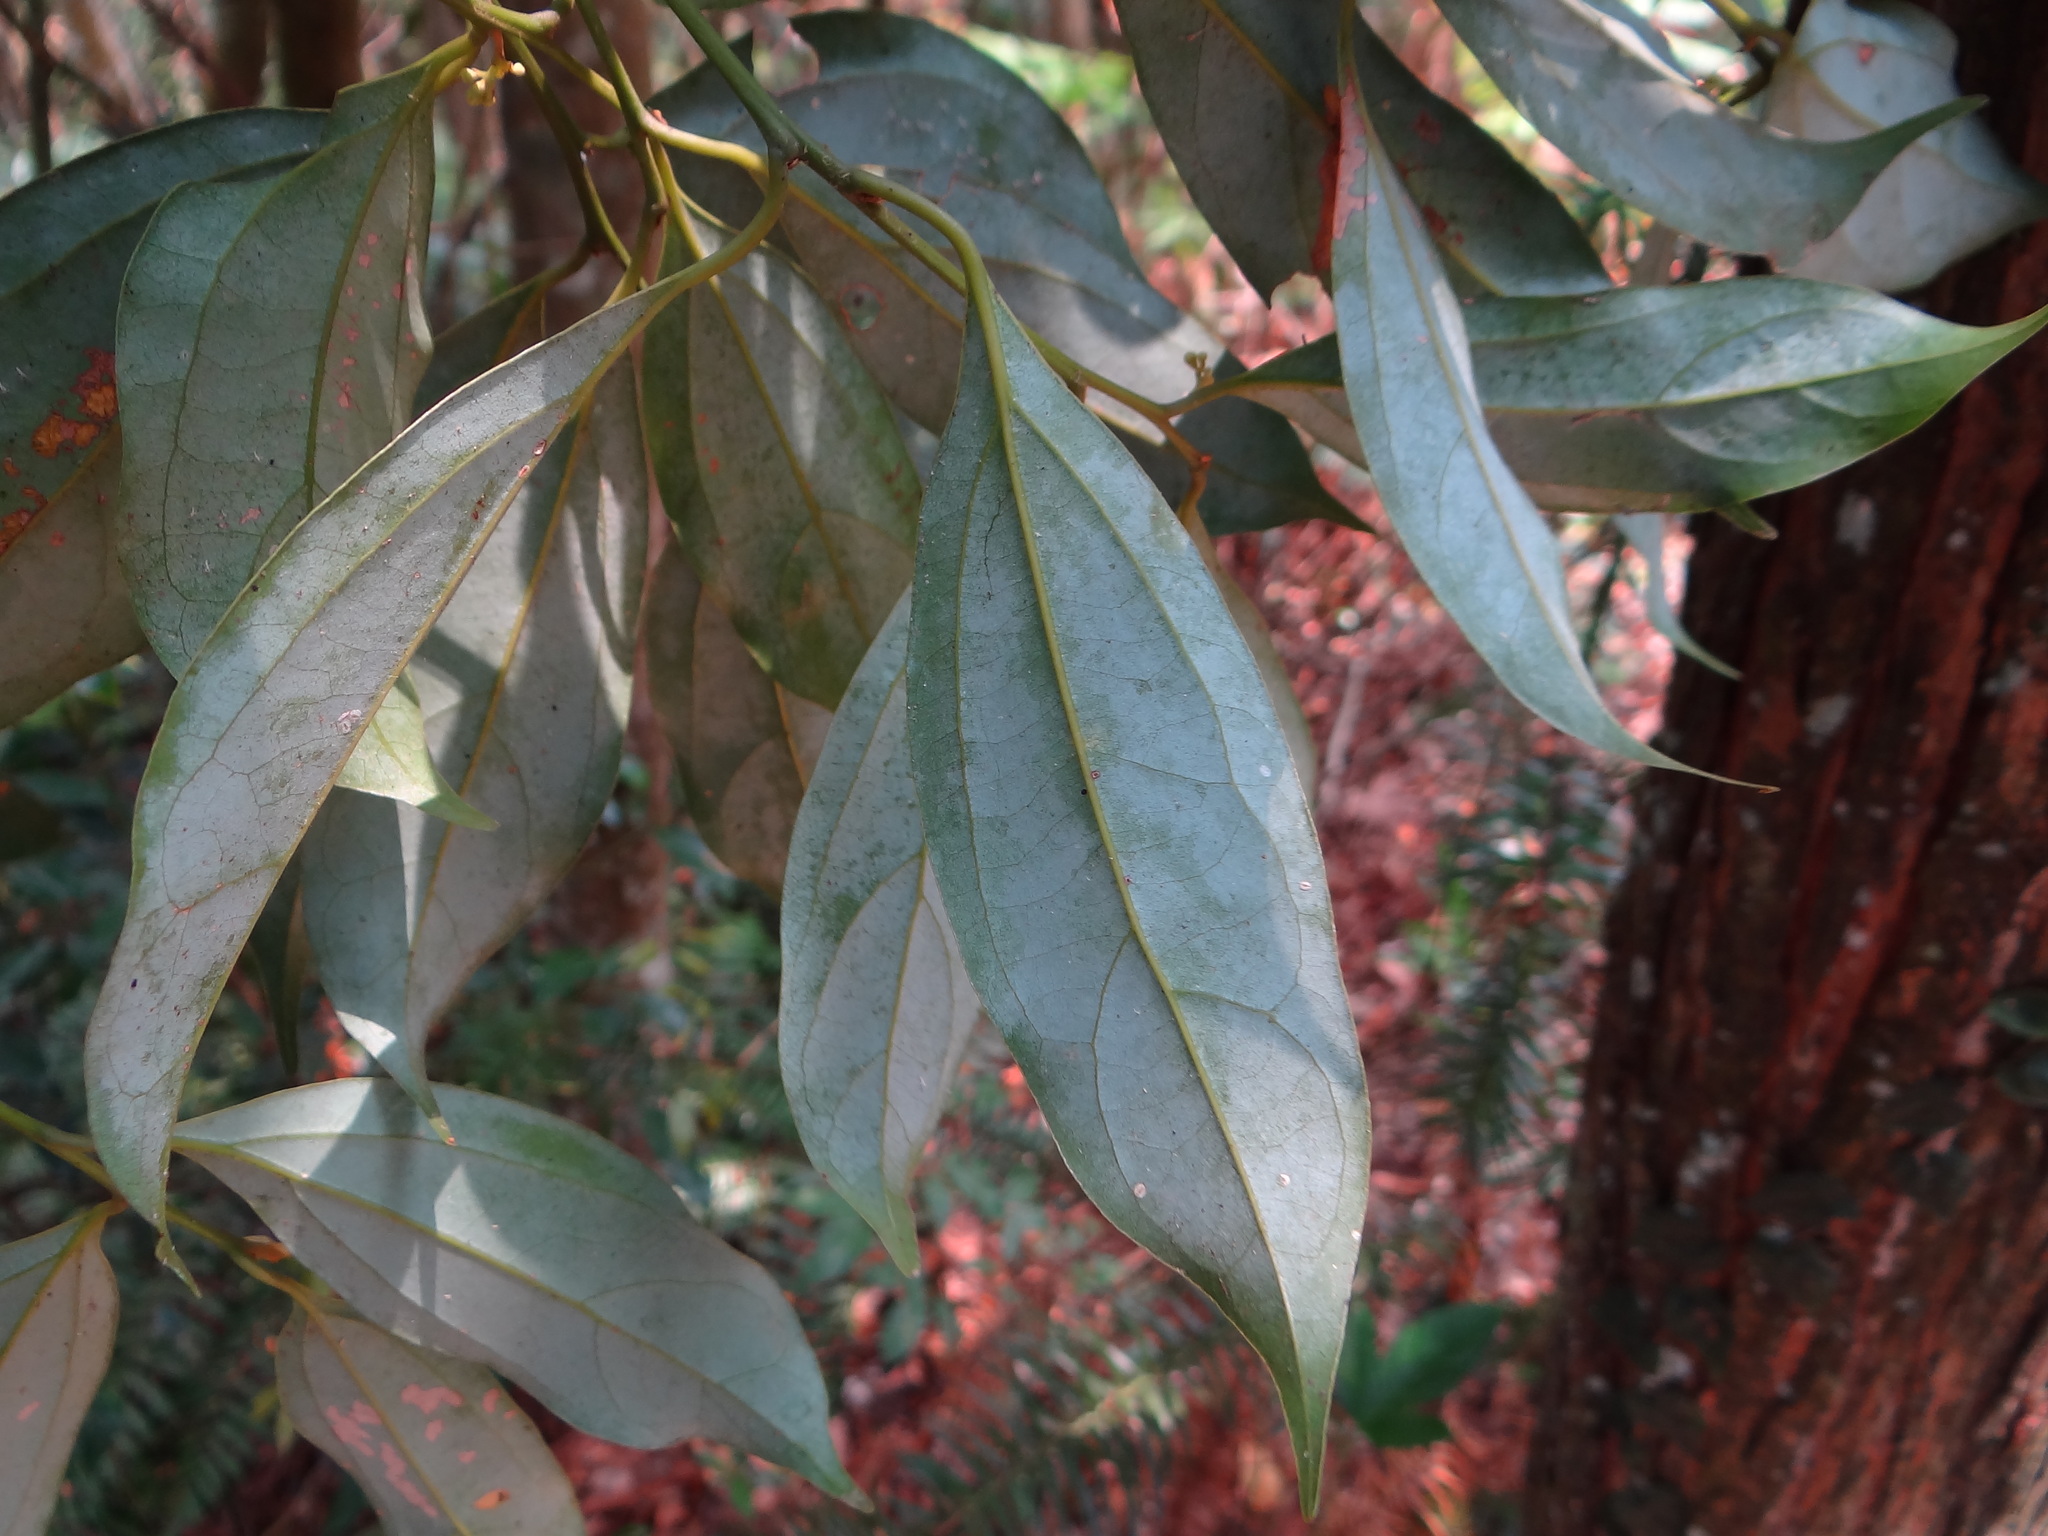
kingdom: Plantae
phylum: Tracheophyta
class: Magnoliopsida
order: Laurales
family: Lauraceae
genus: Cryptocarya
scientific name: Cryptocarya chinensis
